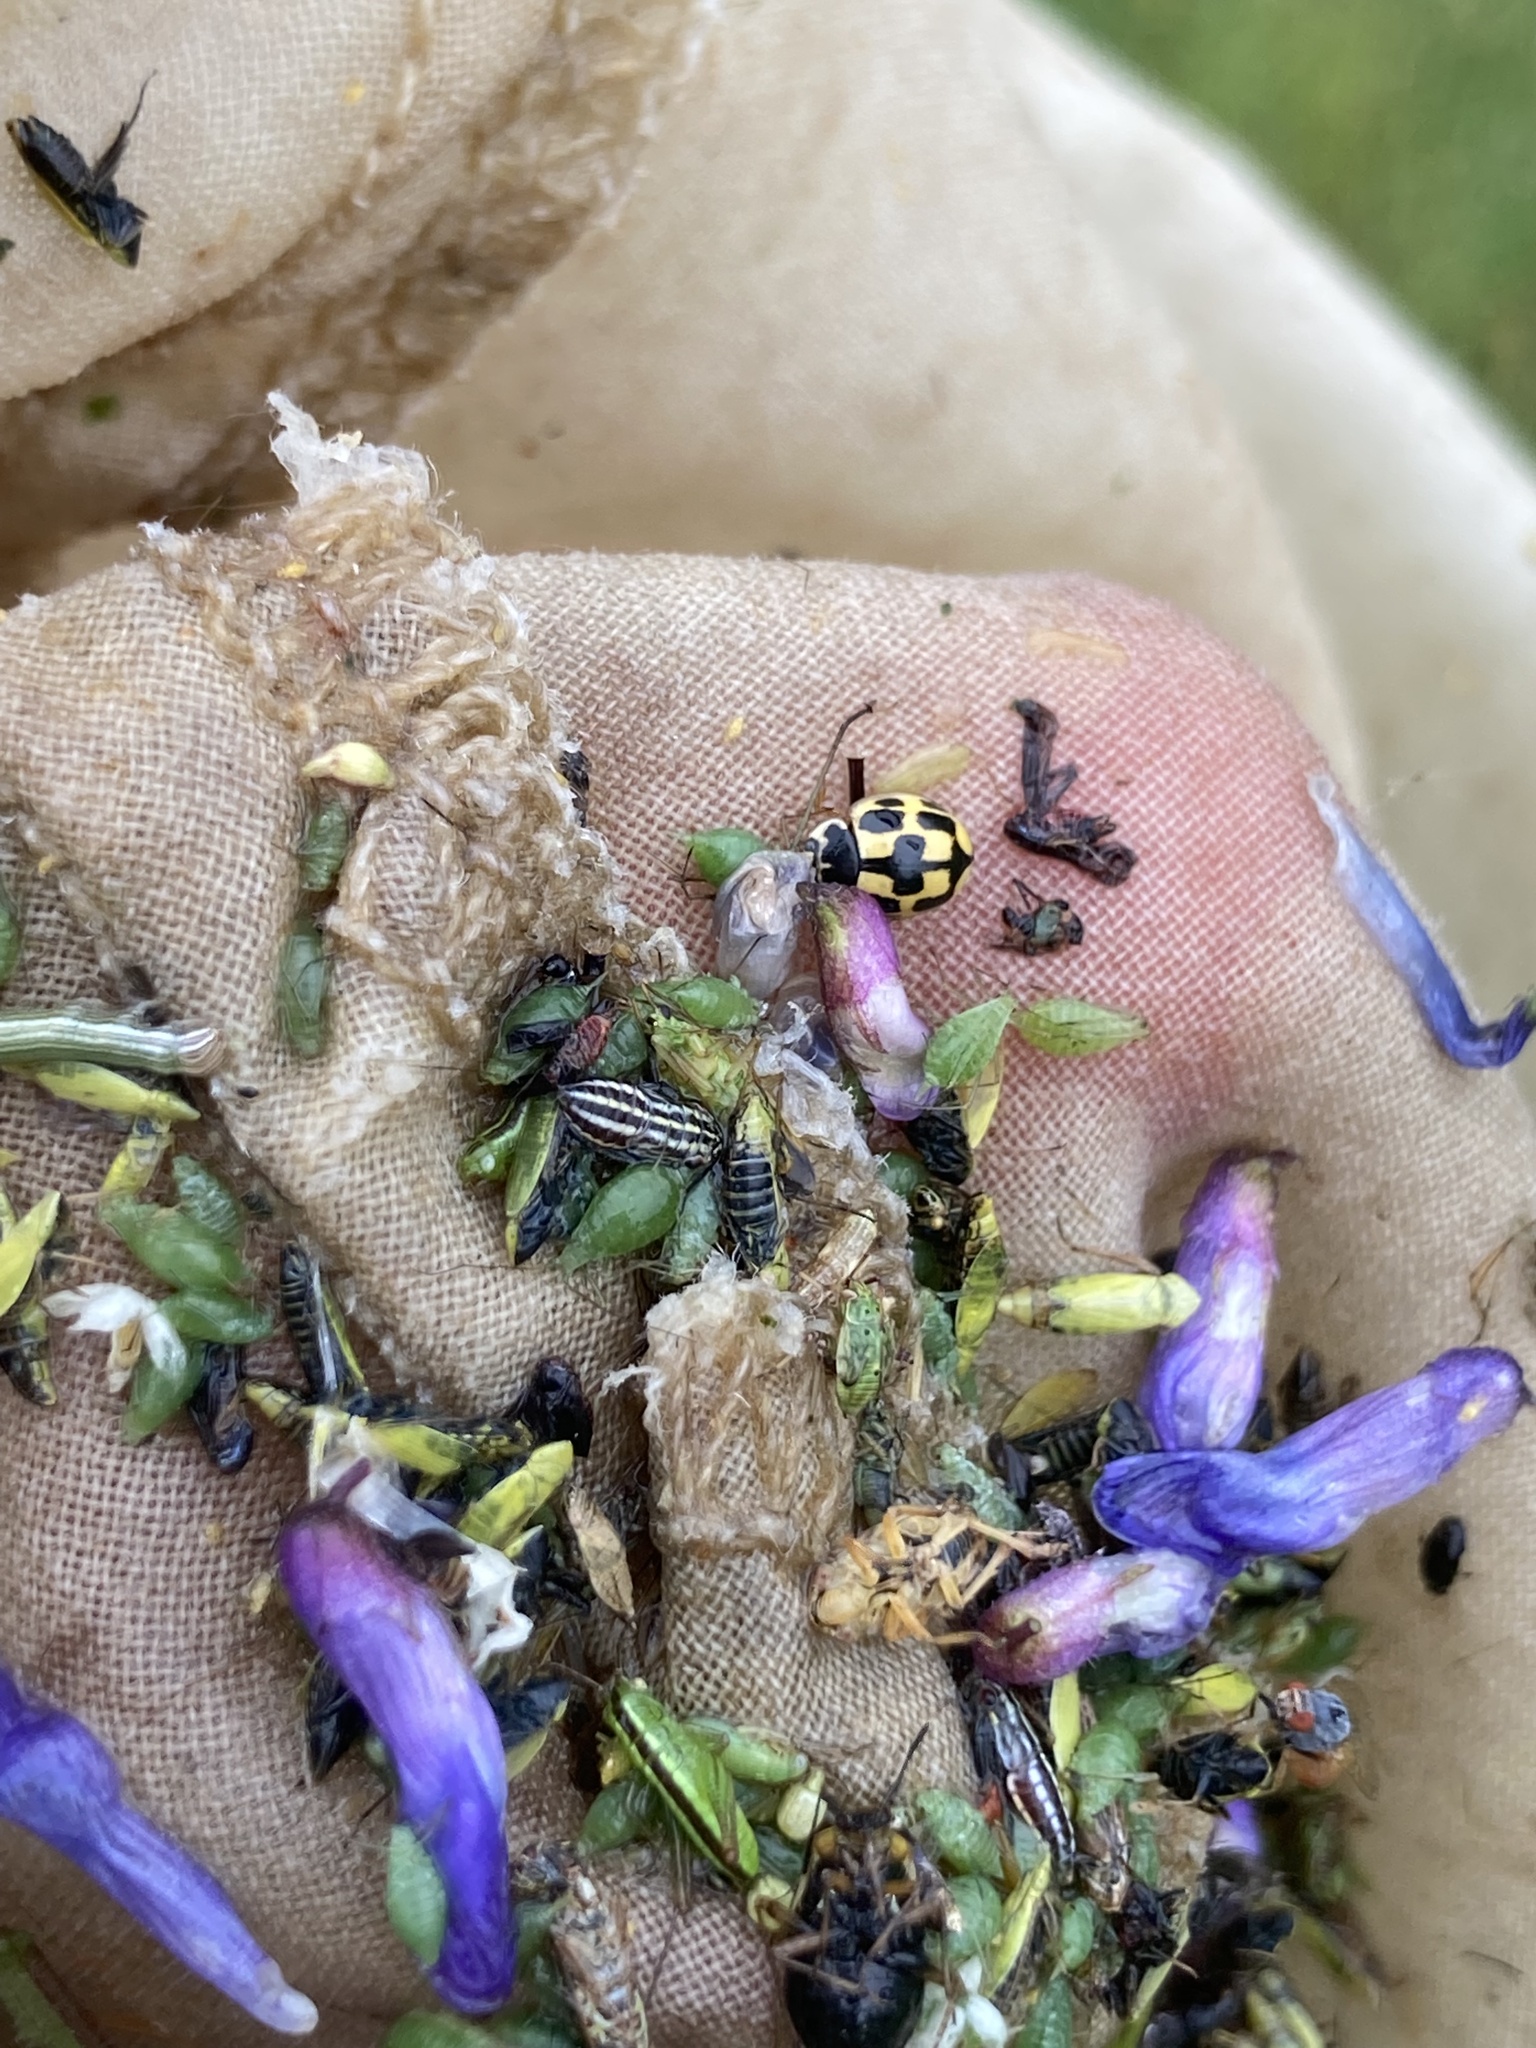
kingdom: Animalia
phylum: Arthropoda
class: Insecta
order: Coleoptera
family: Coccinellidae
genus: Propylaea
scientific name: Propylaea quatuordecimpunctata
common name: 14-spotted ladybird beetle
